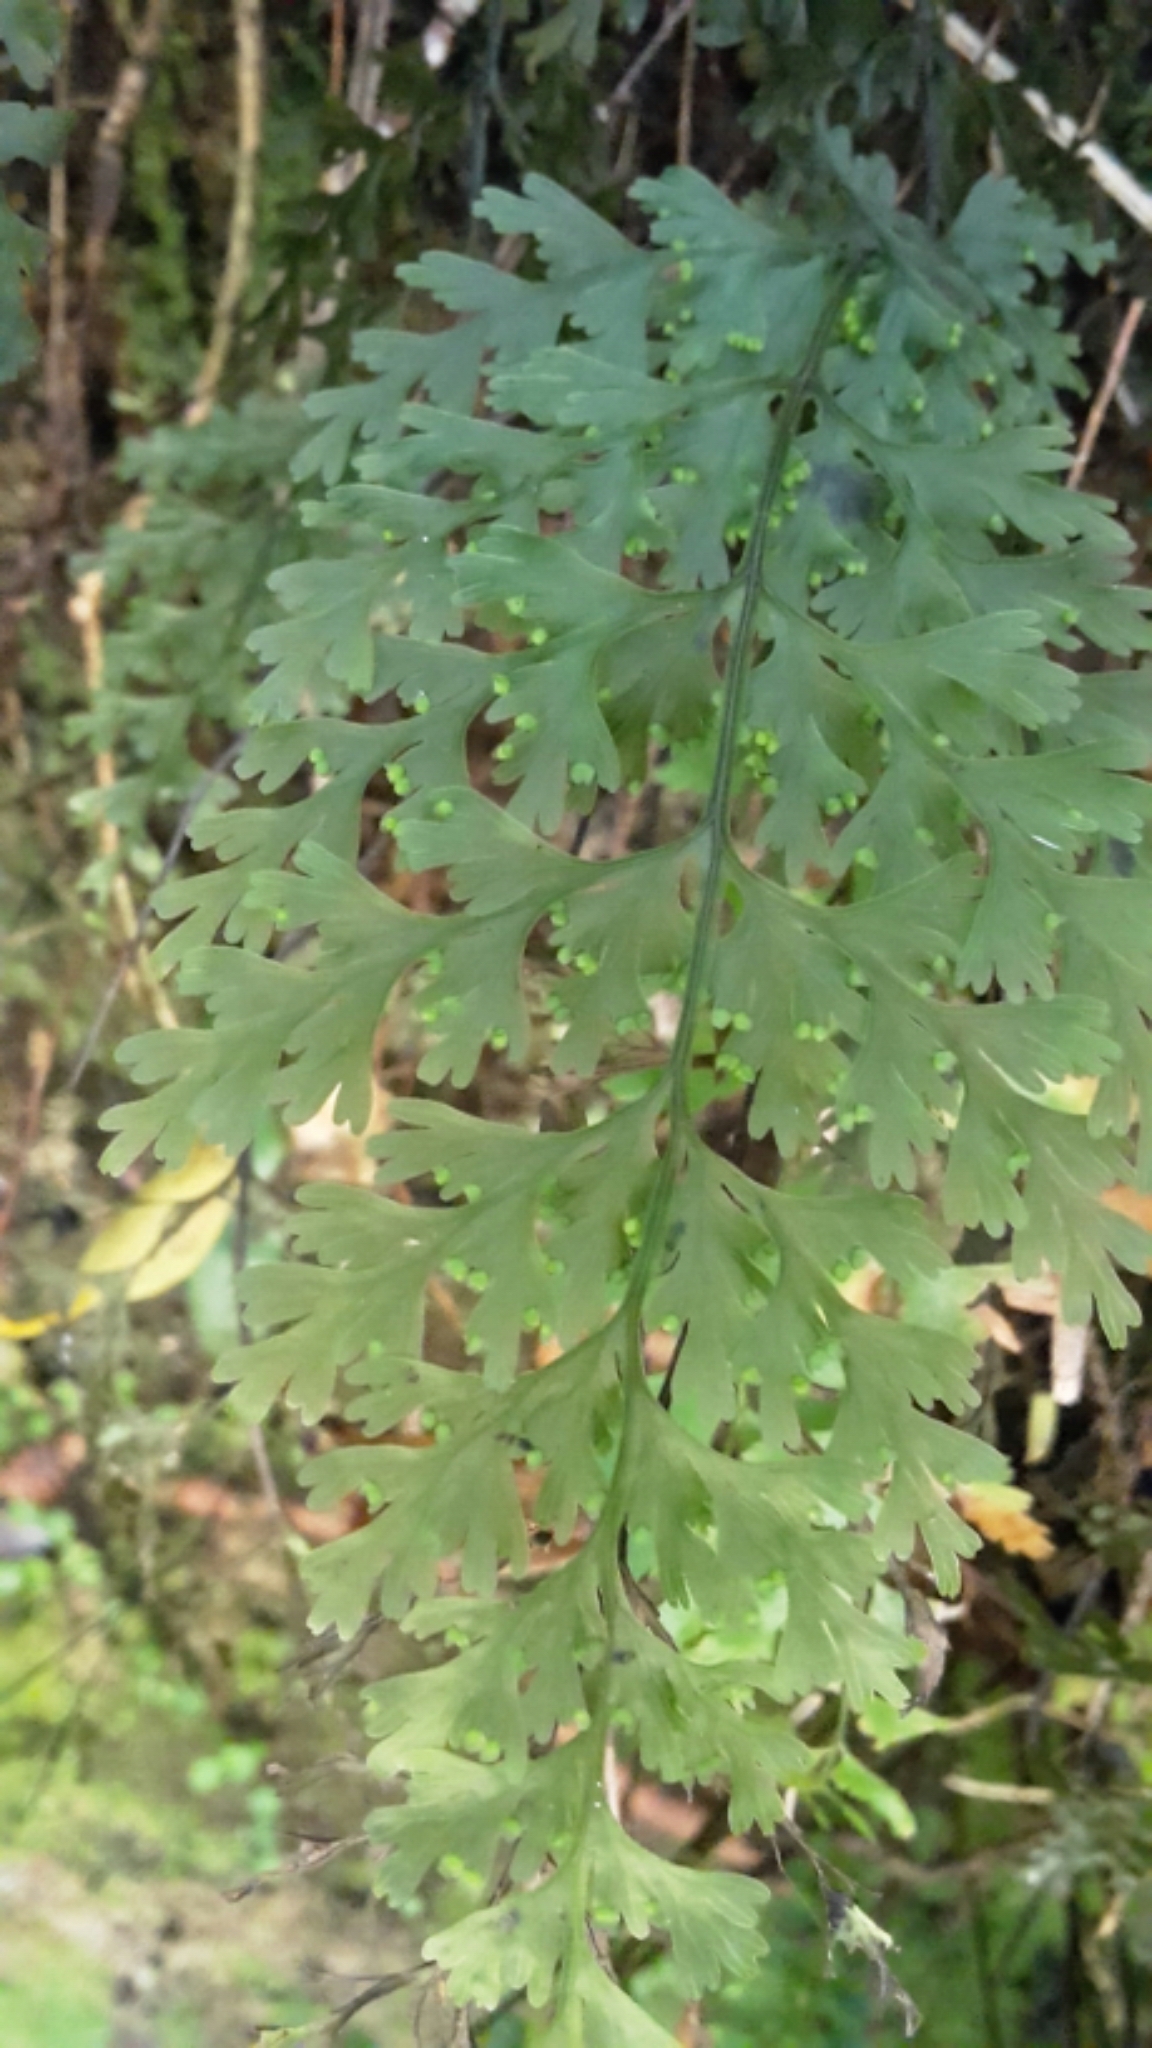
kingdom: Plantae
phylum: Tracheophyta
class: Polypodiopsida
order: Hymenophyllales
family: Hymenophyllaceae
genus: Hymenophyllum
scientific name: Hymenophyllum dilatatum
